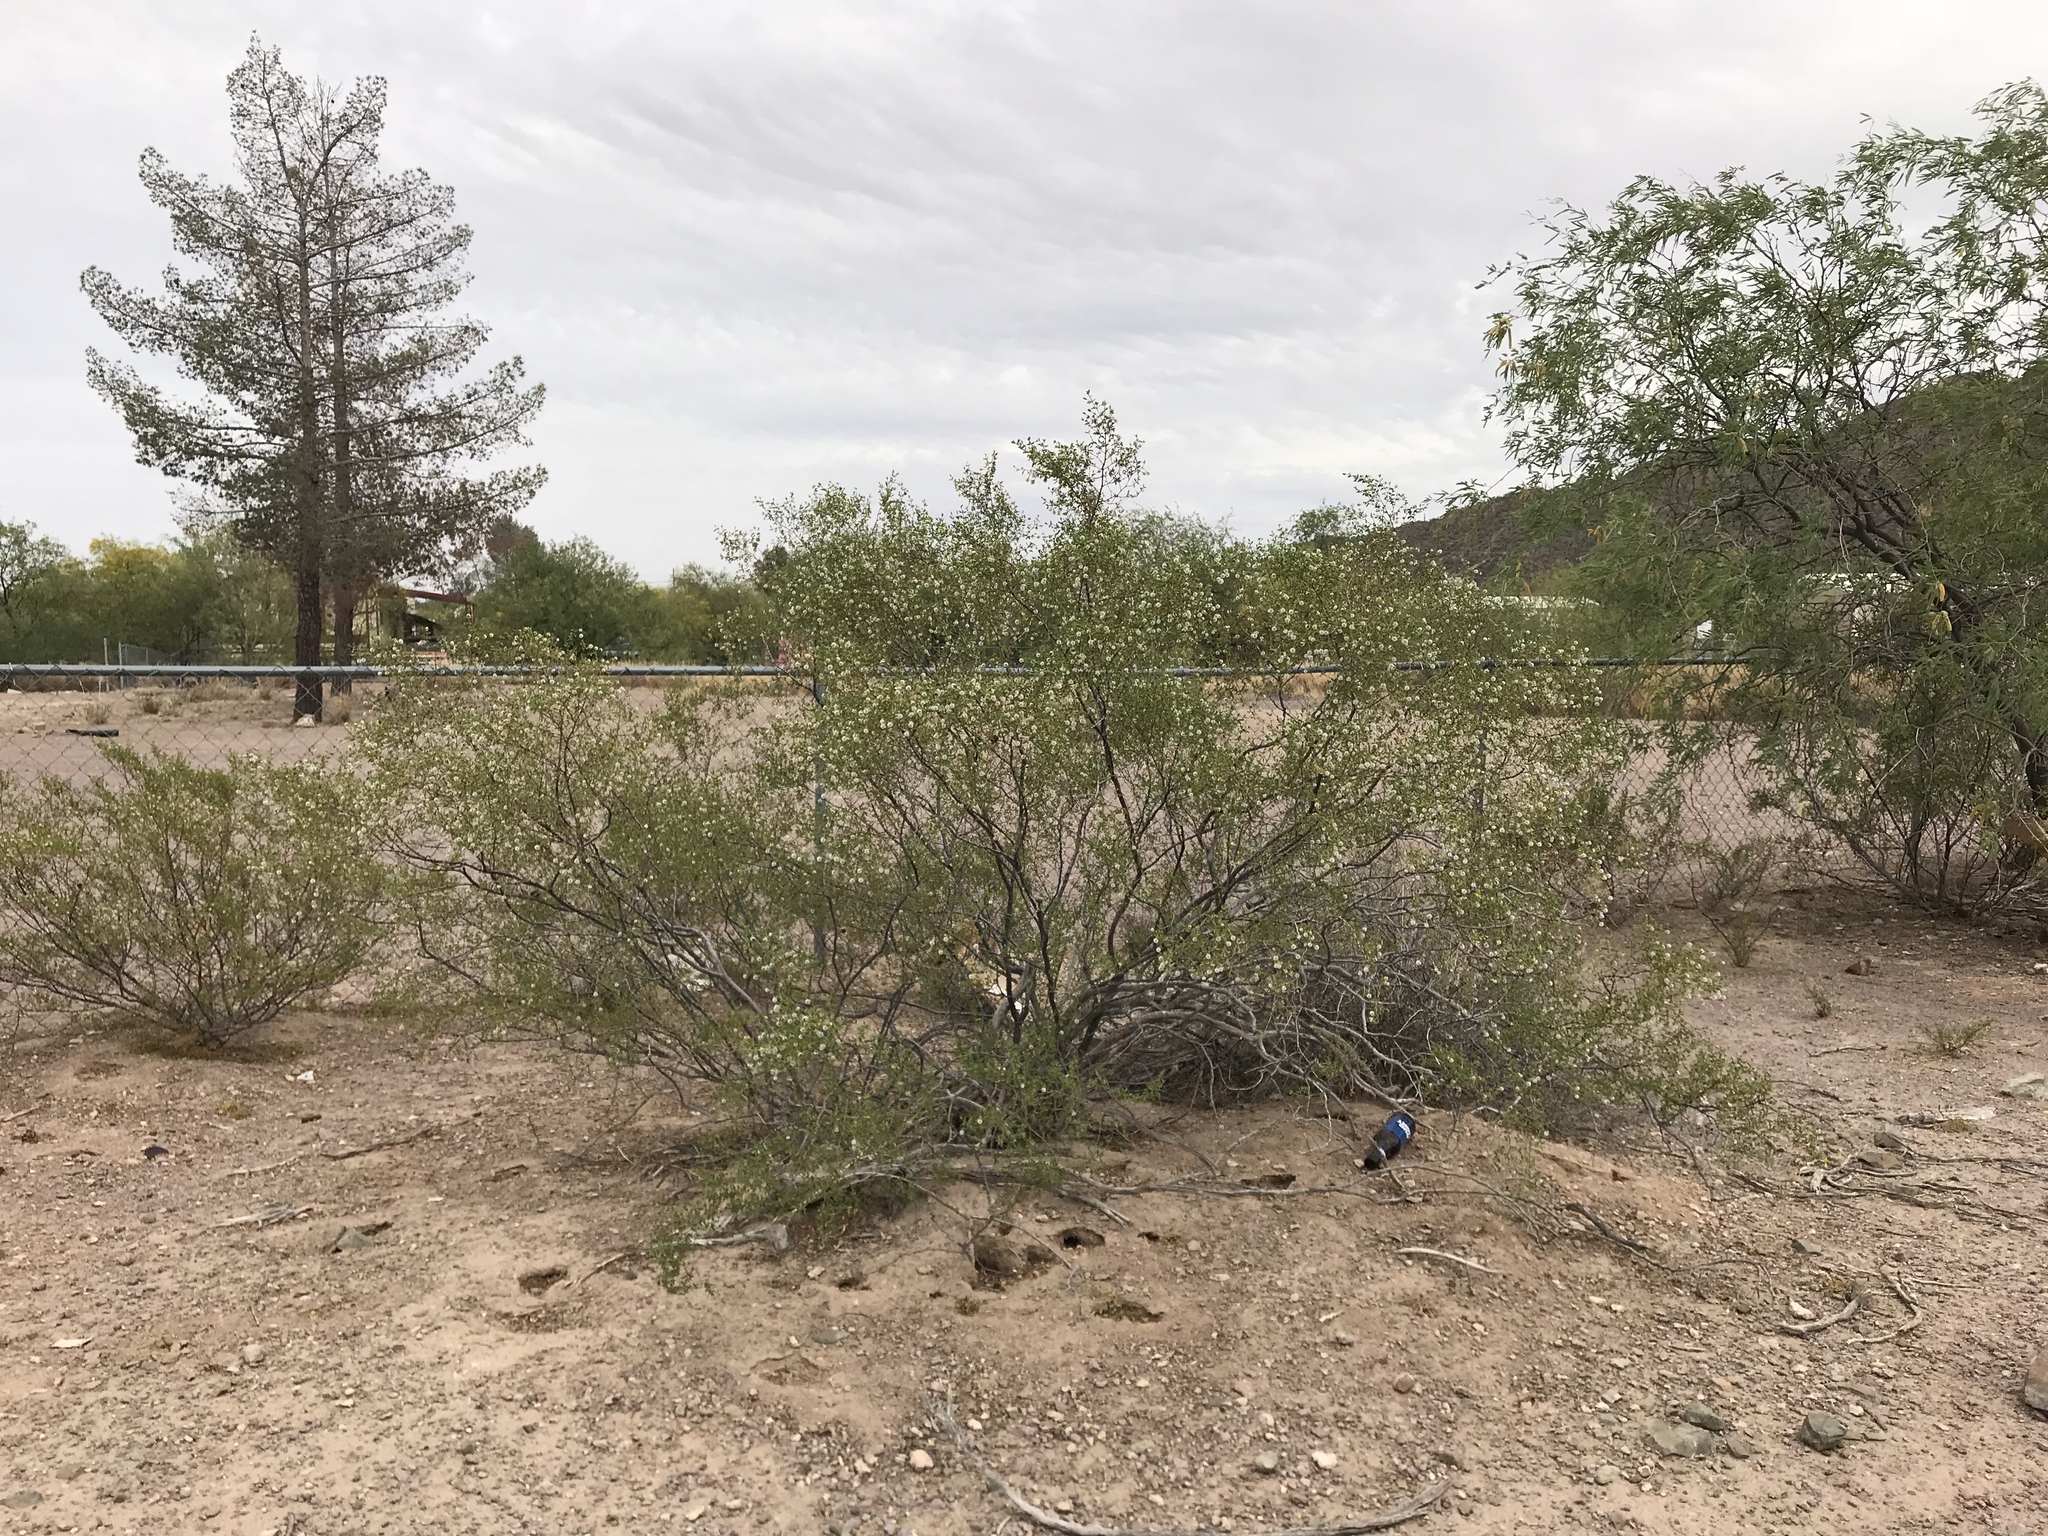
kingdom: Plantae
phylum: Tracheophyta
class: Magnoliopsida
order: Zygophyllales
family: Zygophyllaceae
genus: Larrea
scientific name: Larrea tridentata
